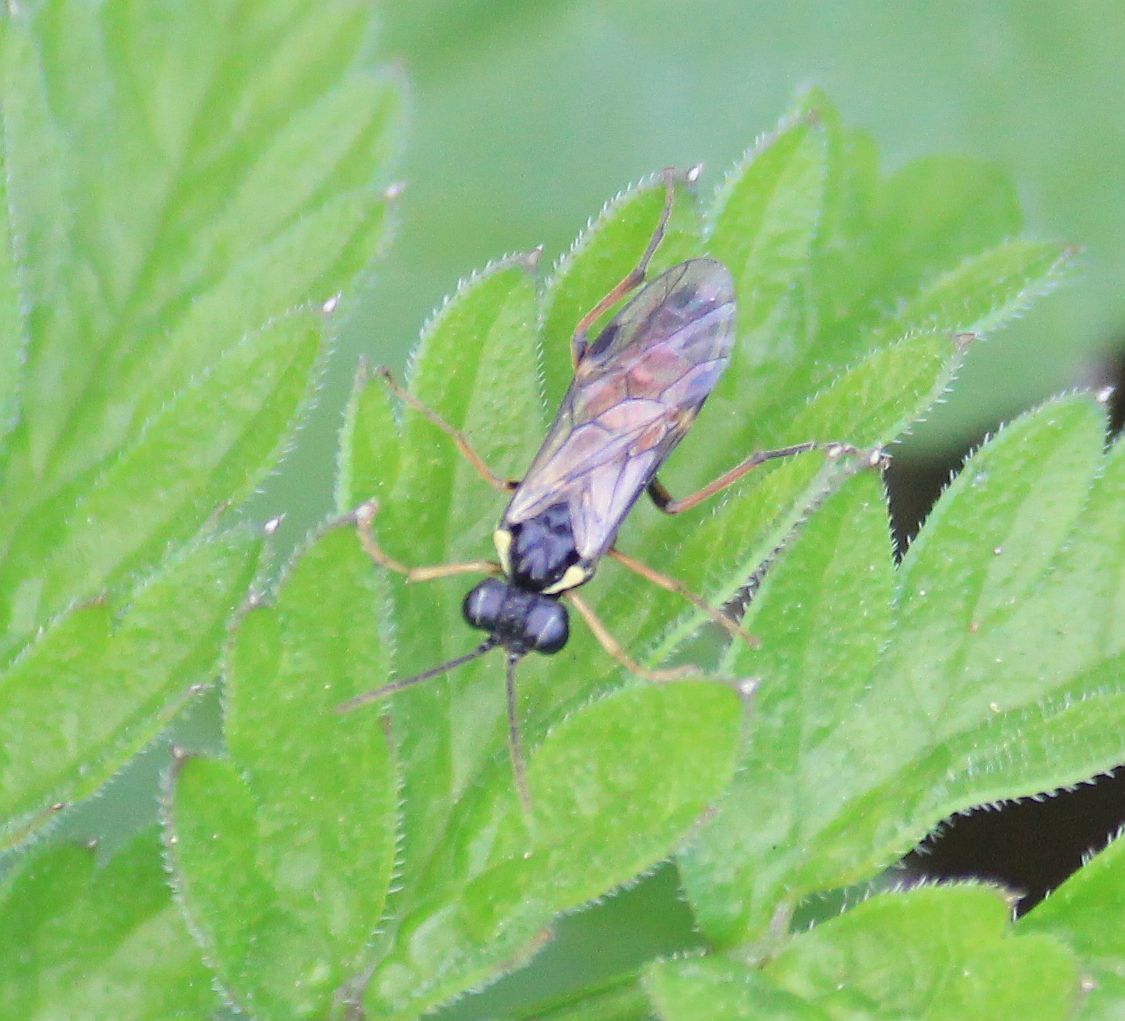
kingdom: Animalia
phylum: Arthropoda
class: Insecta
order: Hymenoptera
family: Tenthredinidae
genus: Aglaostigma
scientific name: Aglaostigma aucupariae
